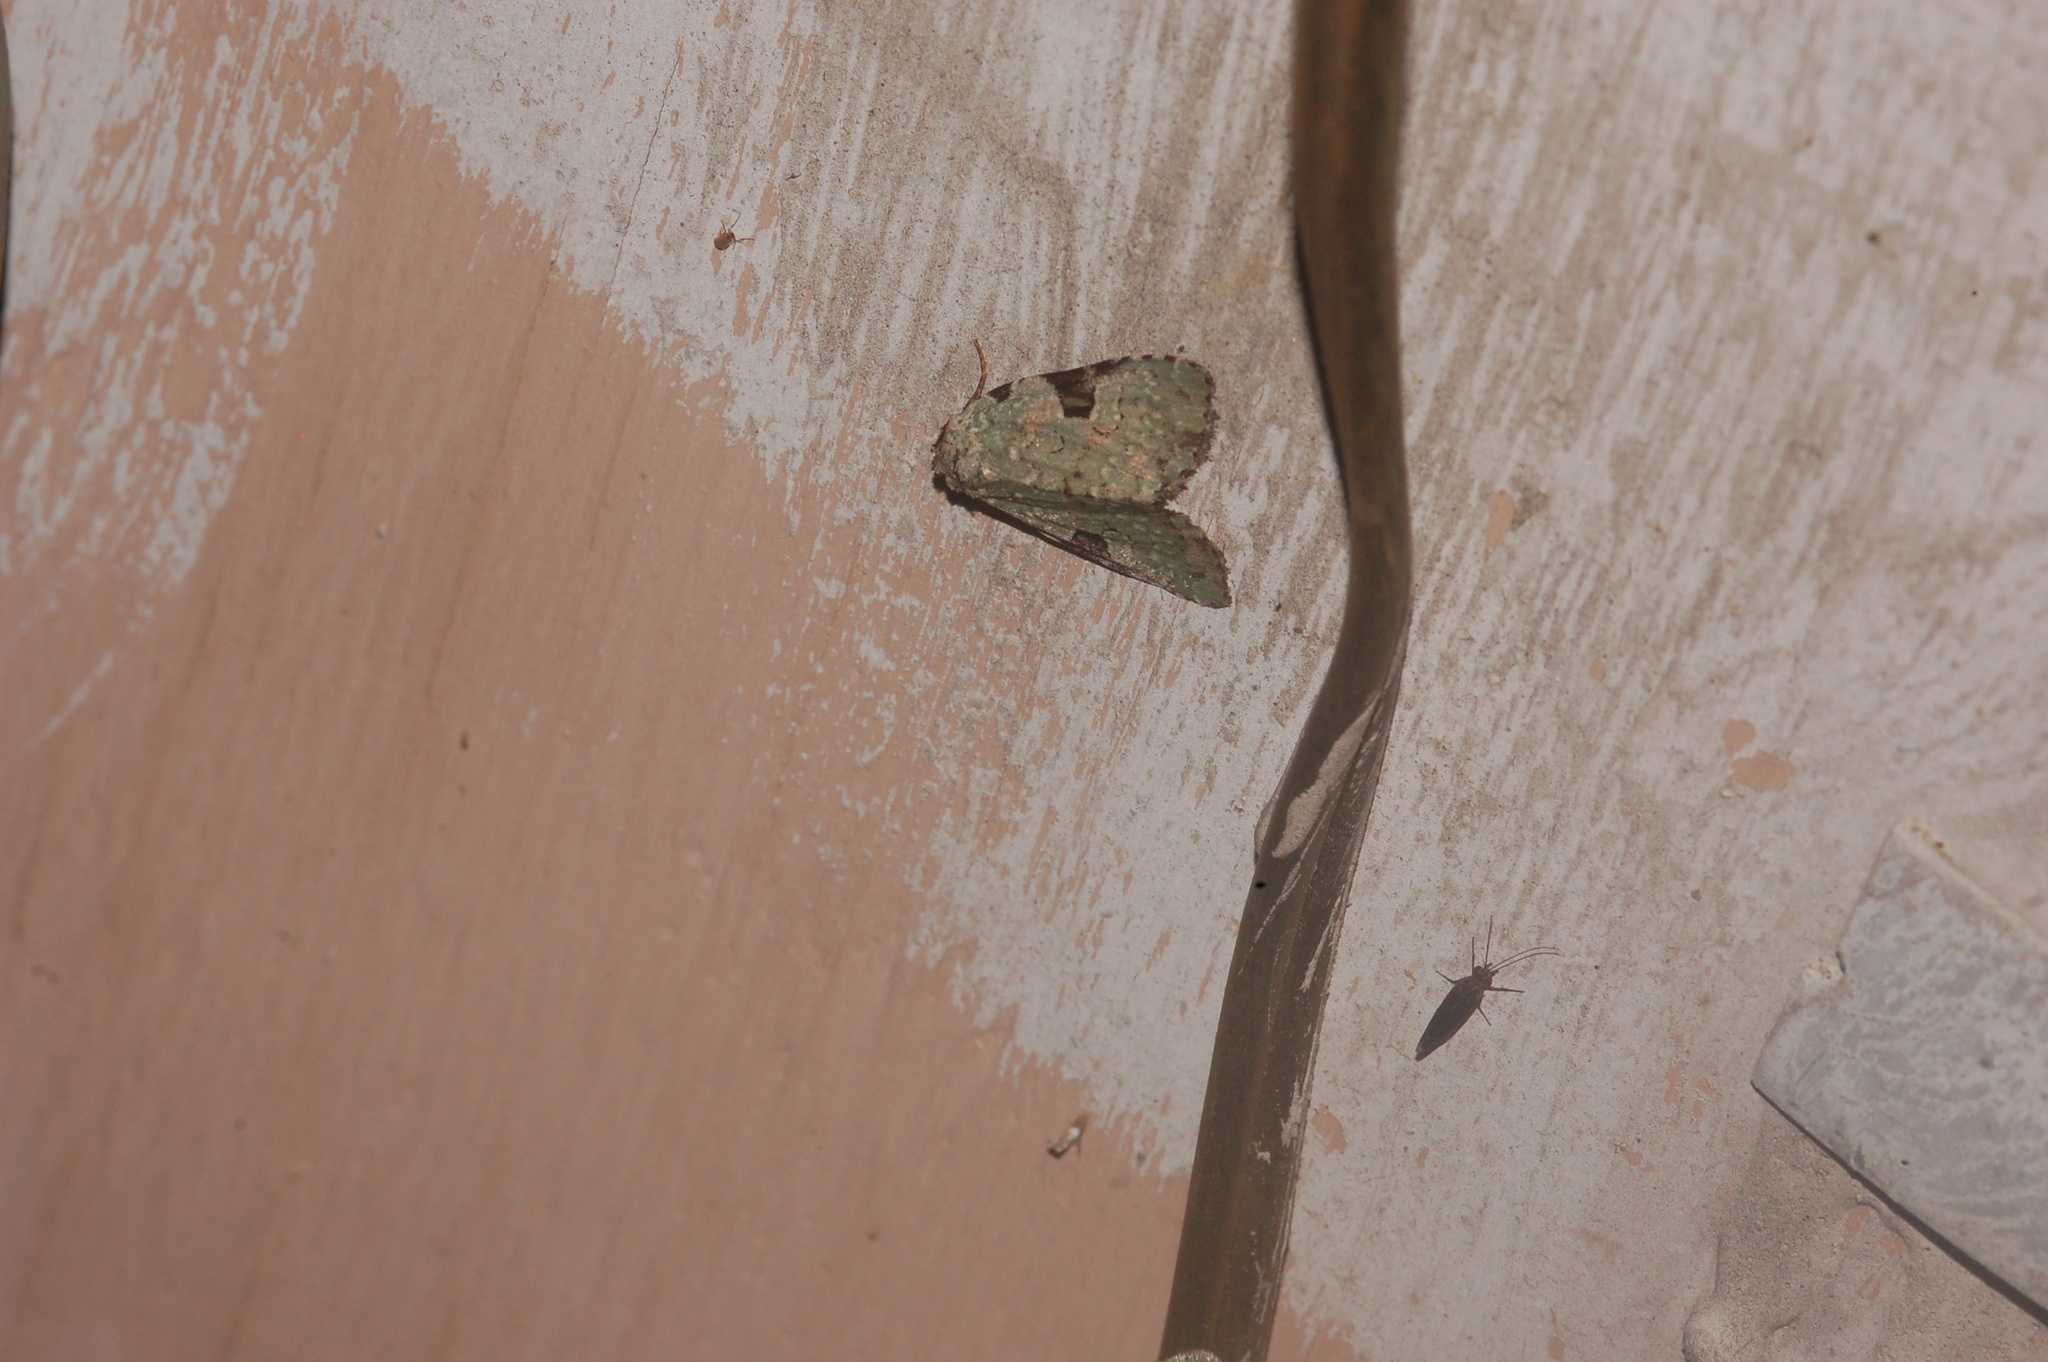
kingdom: Animalia
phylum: Arthropoda
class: Insecta
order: Lepidoptera
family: Noctuidae
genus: Leuconycta
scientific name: Leuconycta diphteroides
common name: Green leuconycta moth
